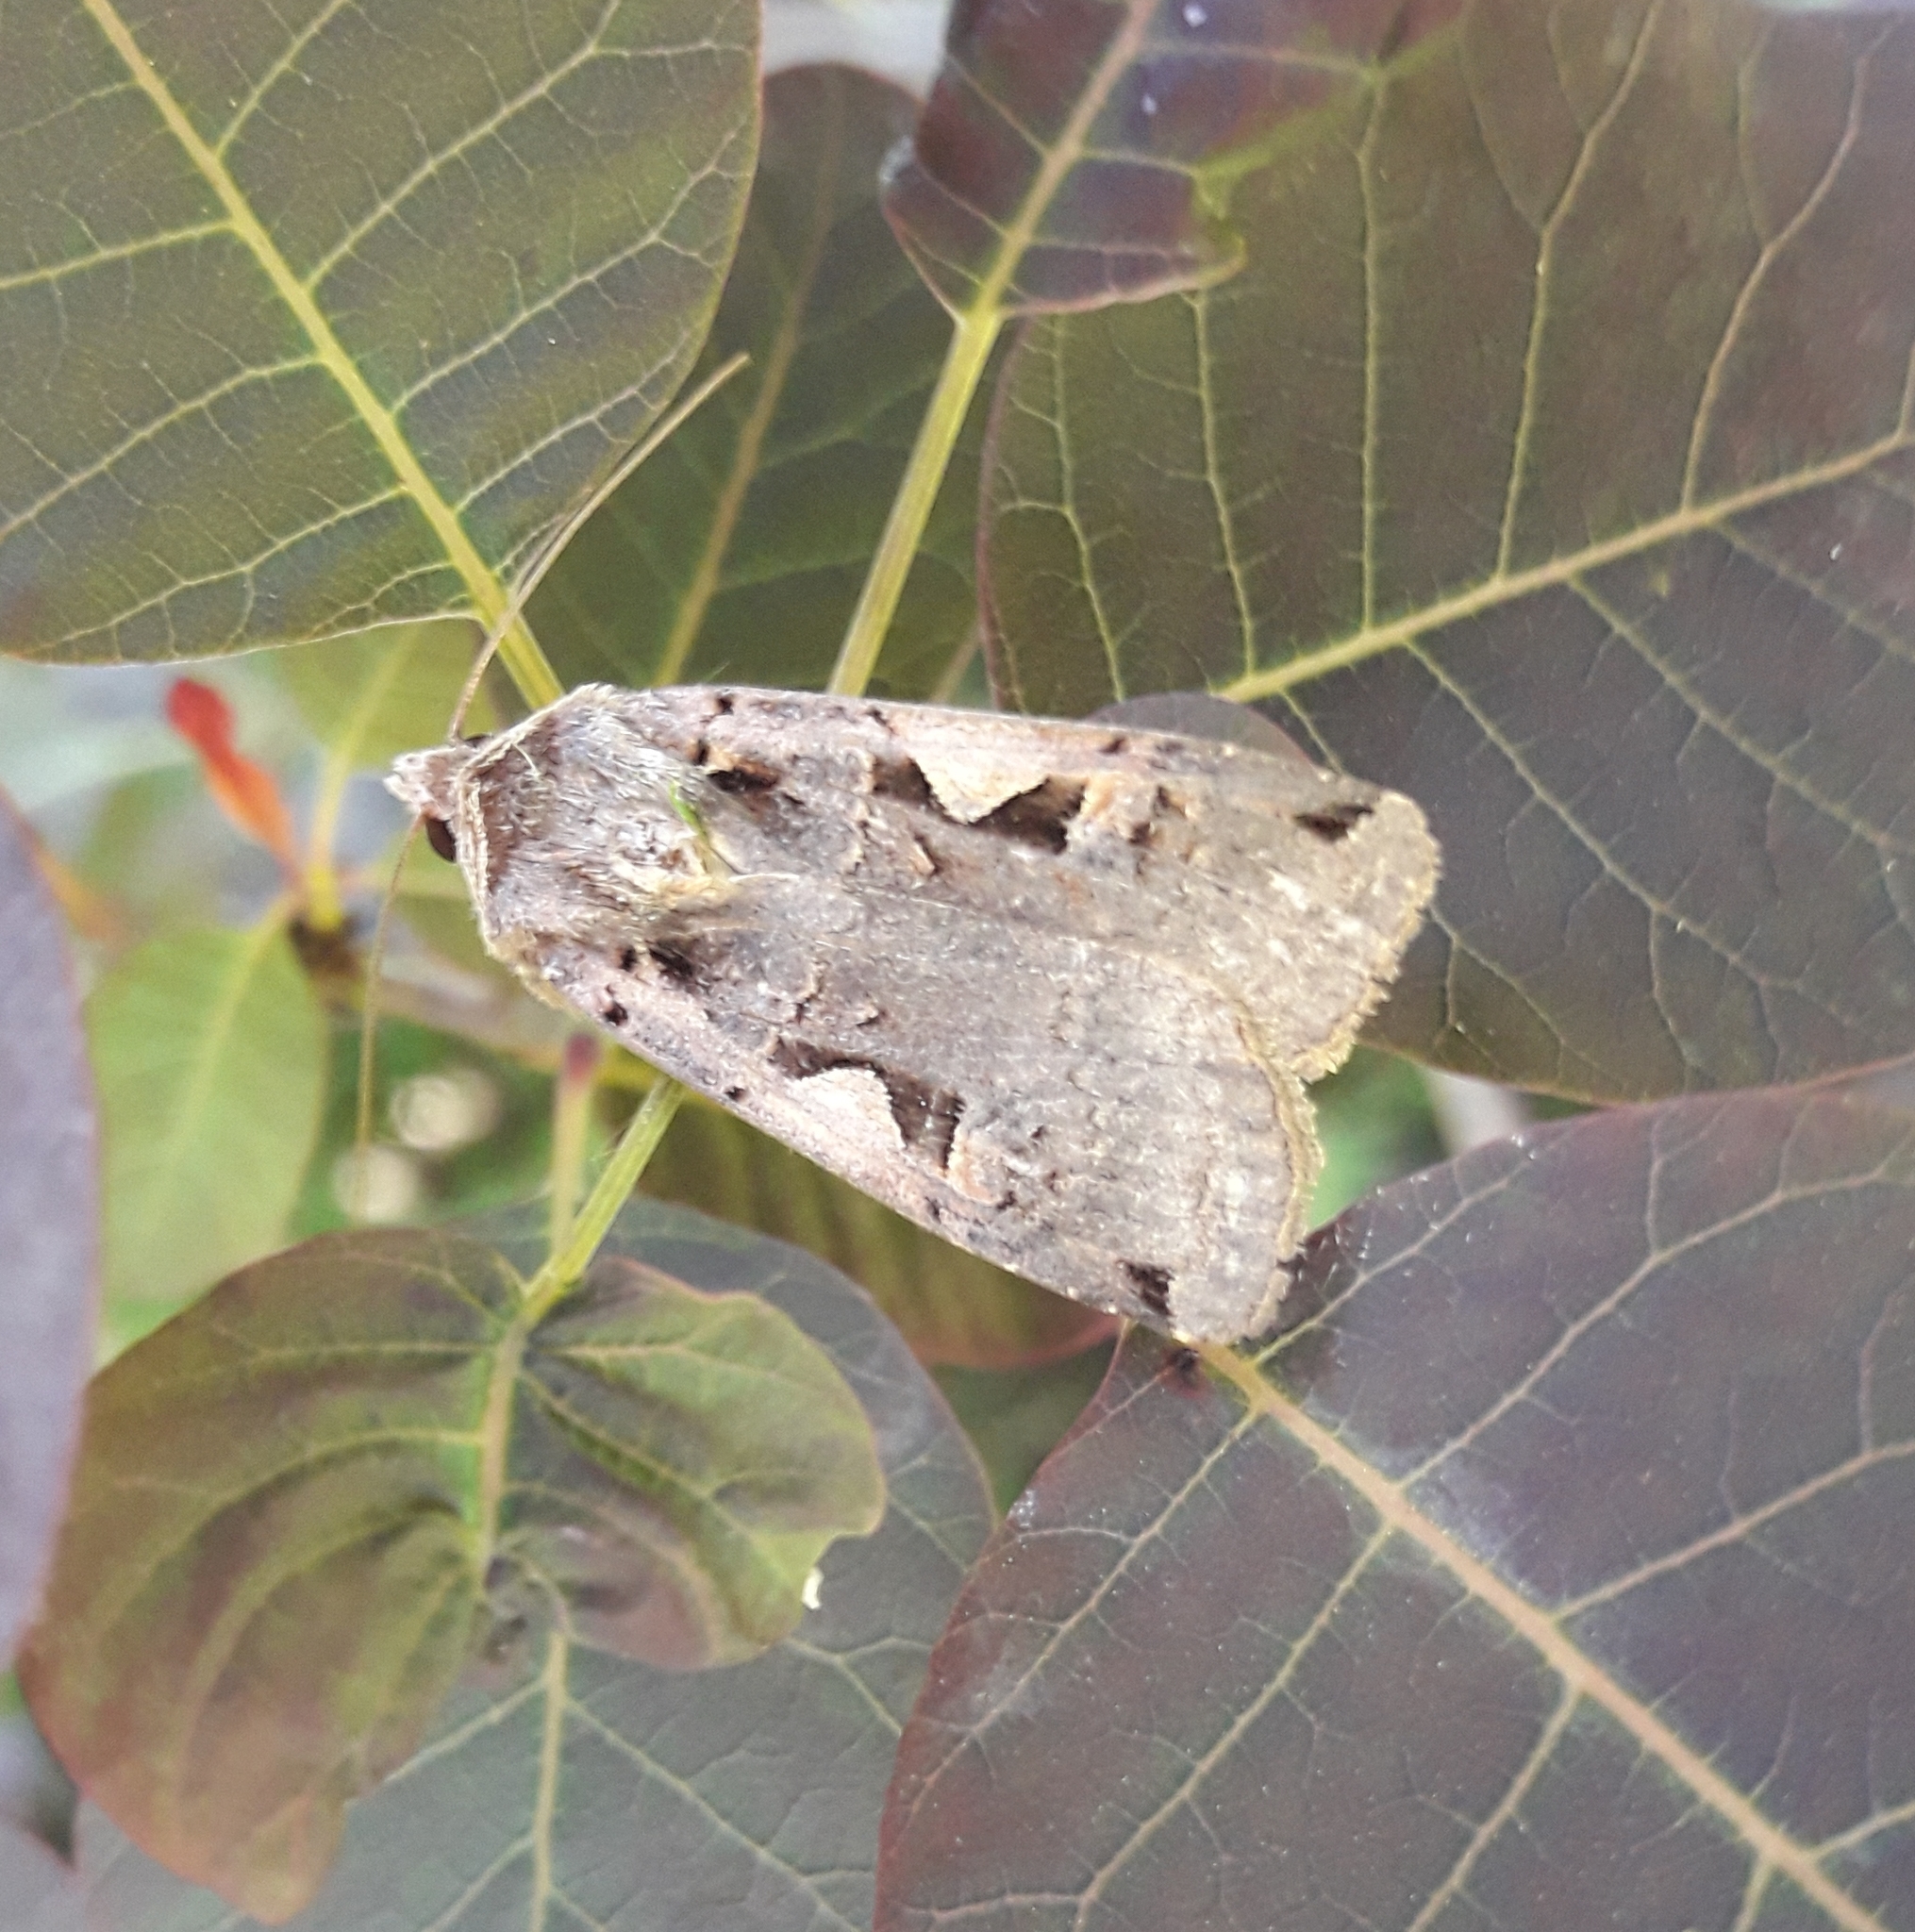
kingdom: Animalia
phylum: Arthropoda
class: Insecta
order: Lepidoptera
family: Noctuidae
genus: Xestia
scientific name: Xestia c-nigrum
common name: Setaceous hebrew character
